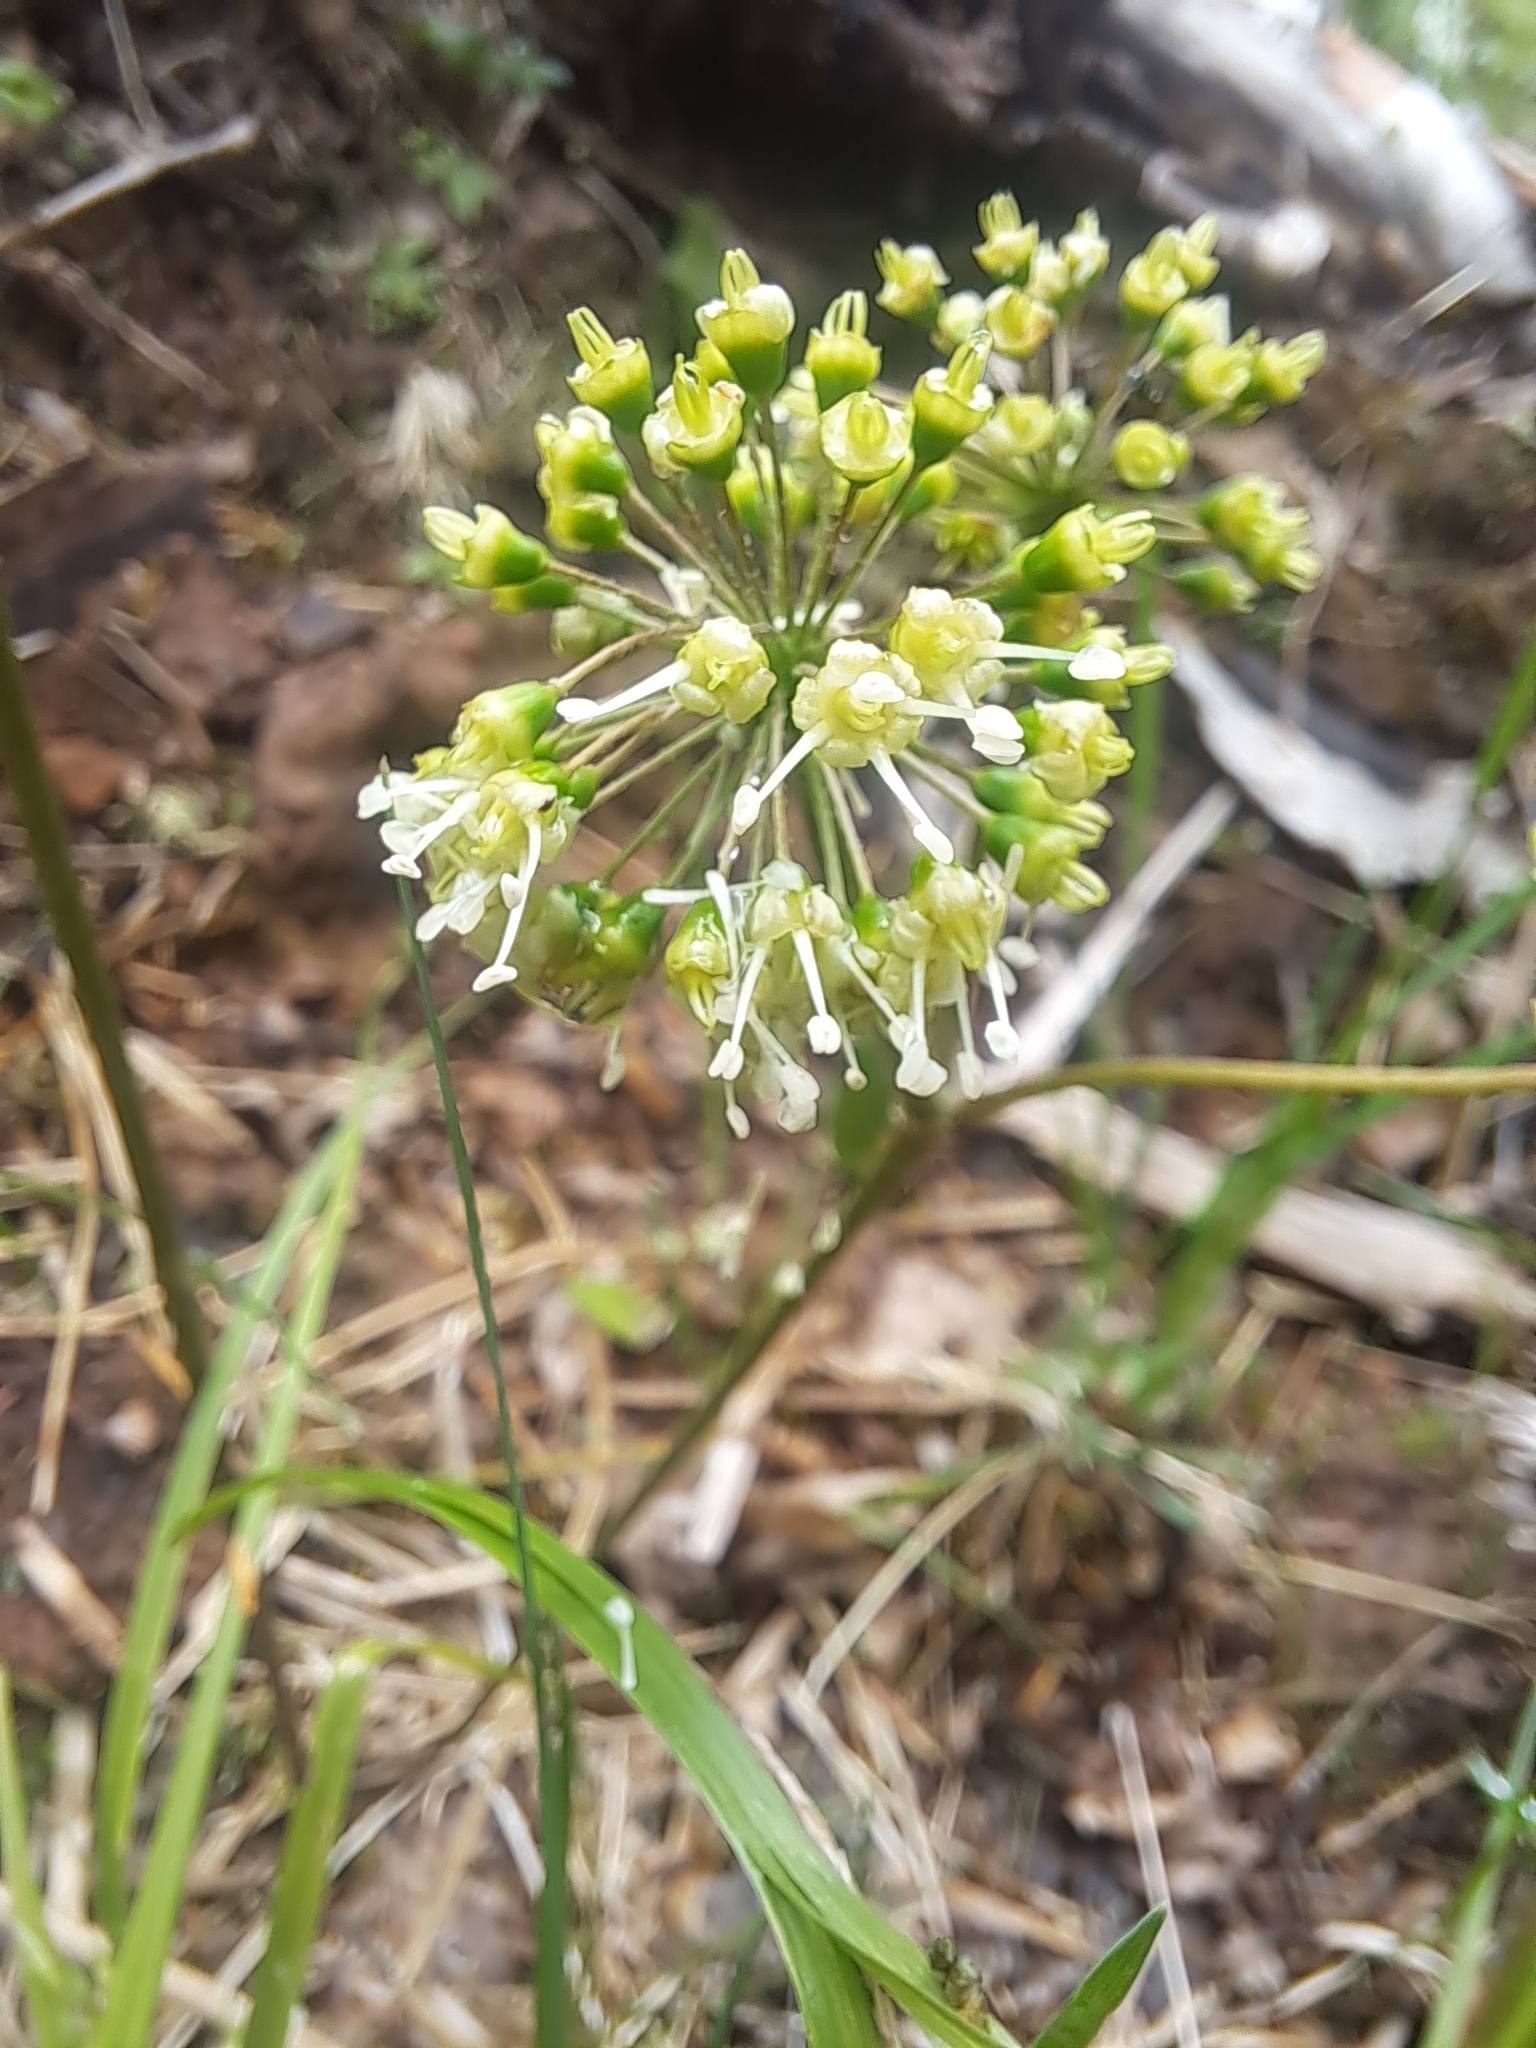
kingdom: Plantae
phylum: Tracheophyta
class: Magnoliopsida
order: Apiales
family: Araliaceae
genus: Aralia
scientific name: Aralia nudicaulis
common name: Wild sarsaparilla
